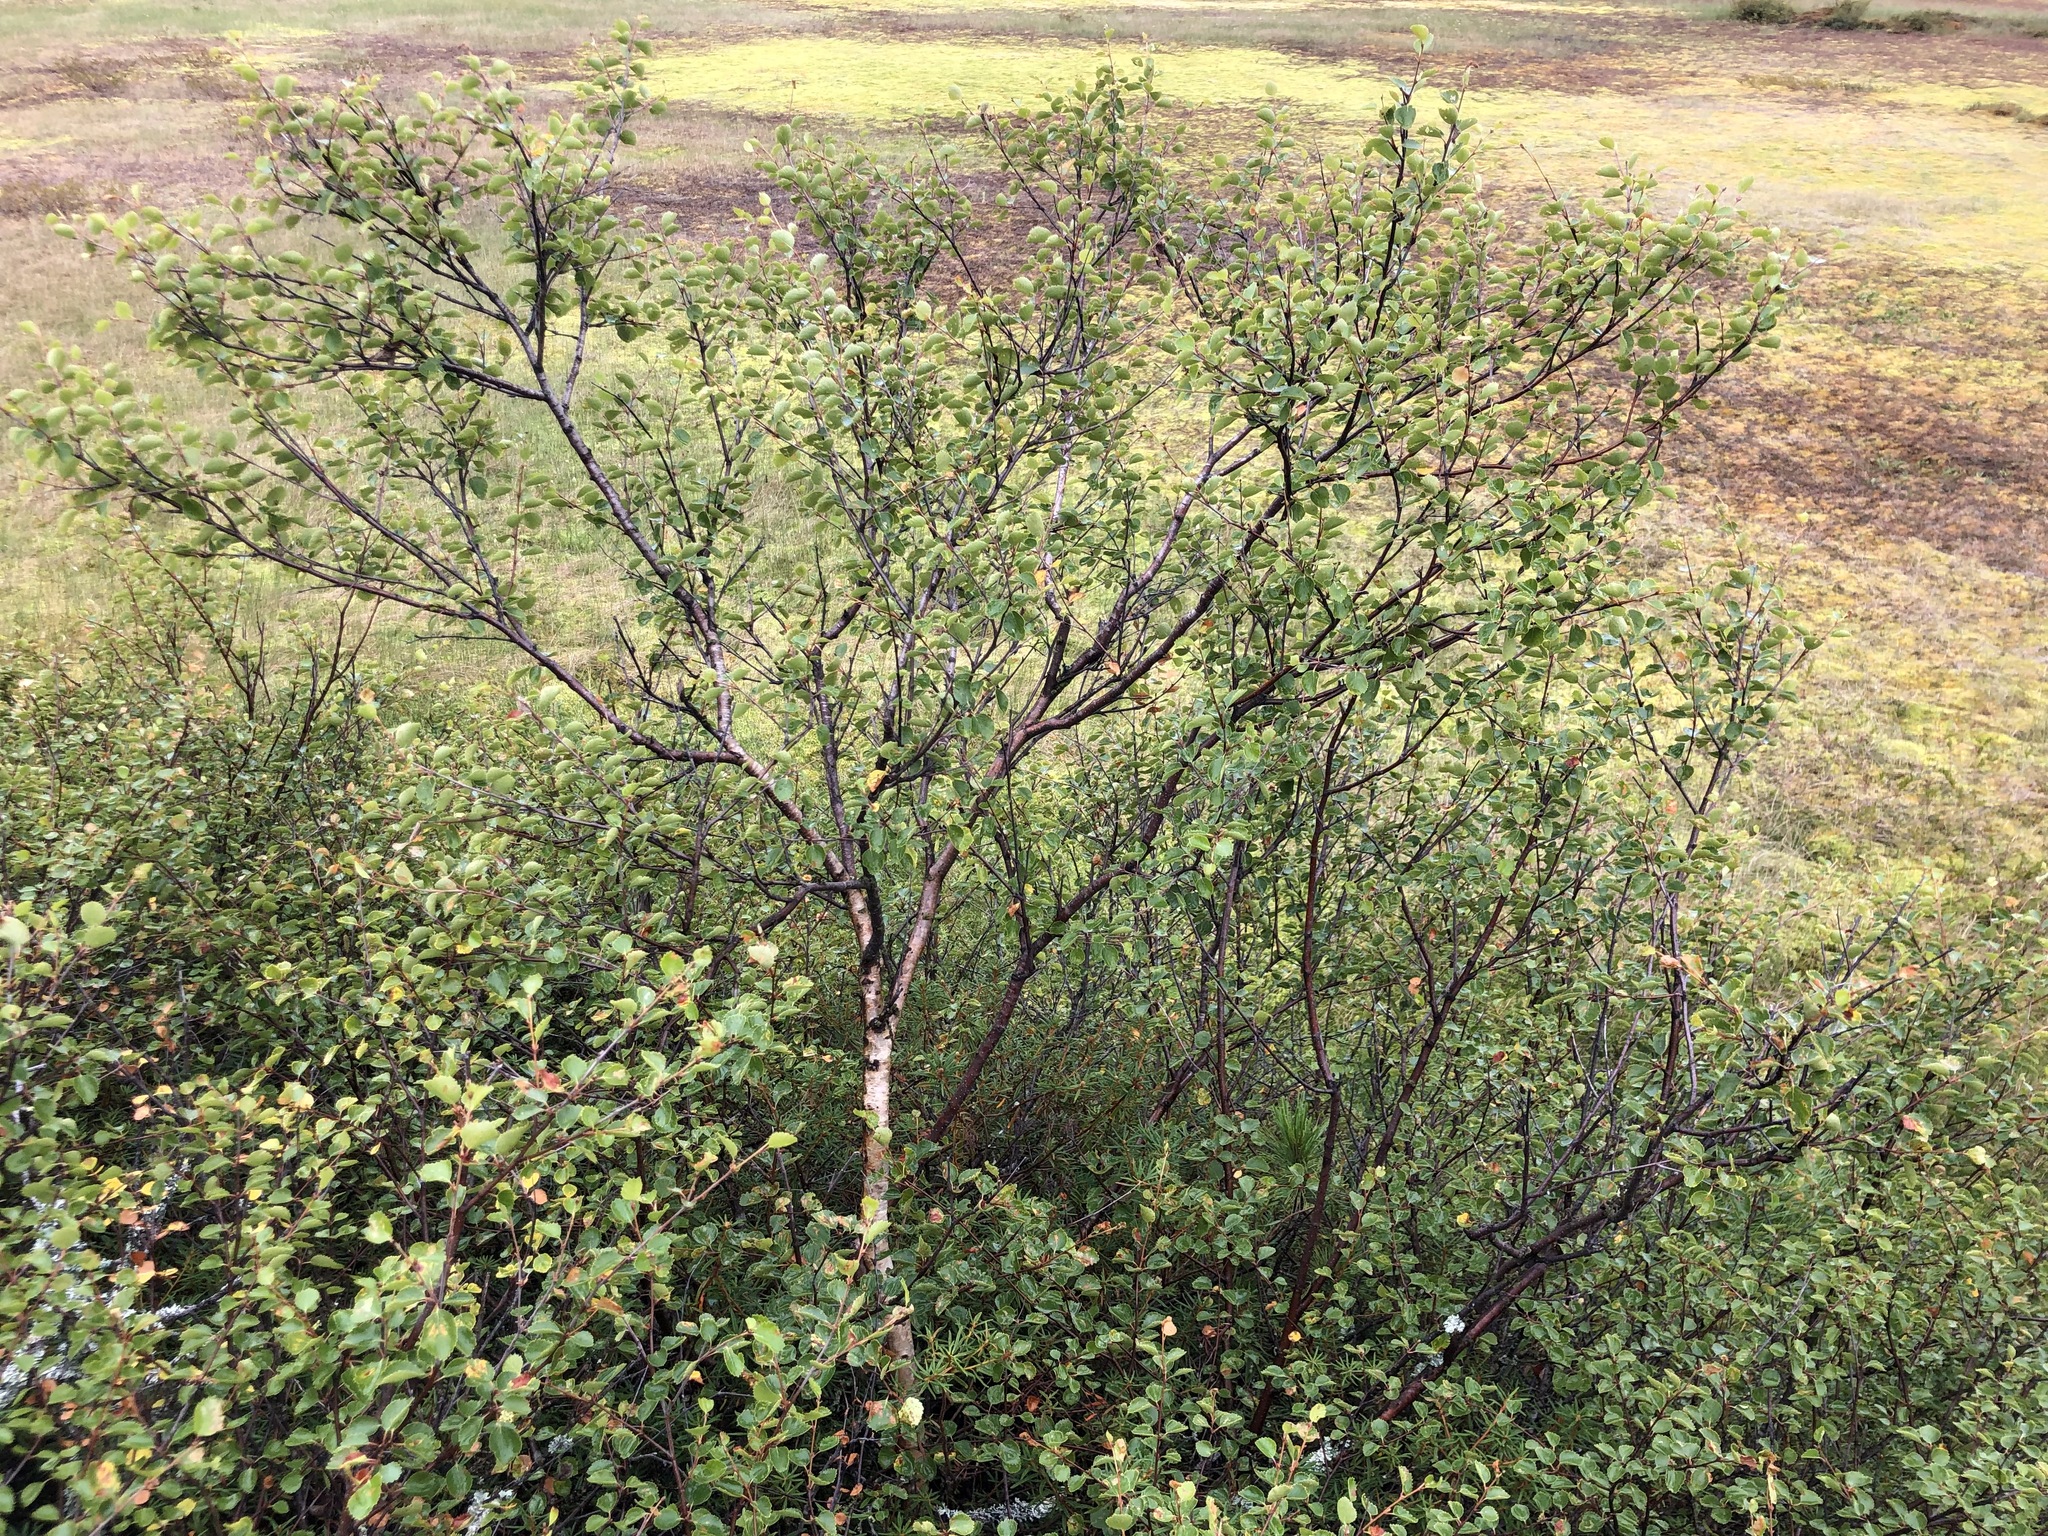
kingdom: Plantae
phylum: Tracheophyta
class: Magnoliopsida
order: Fagales
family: Betulaceae
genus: Betula
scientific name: Betula intermedia
